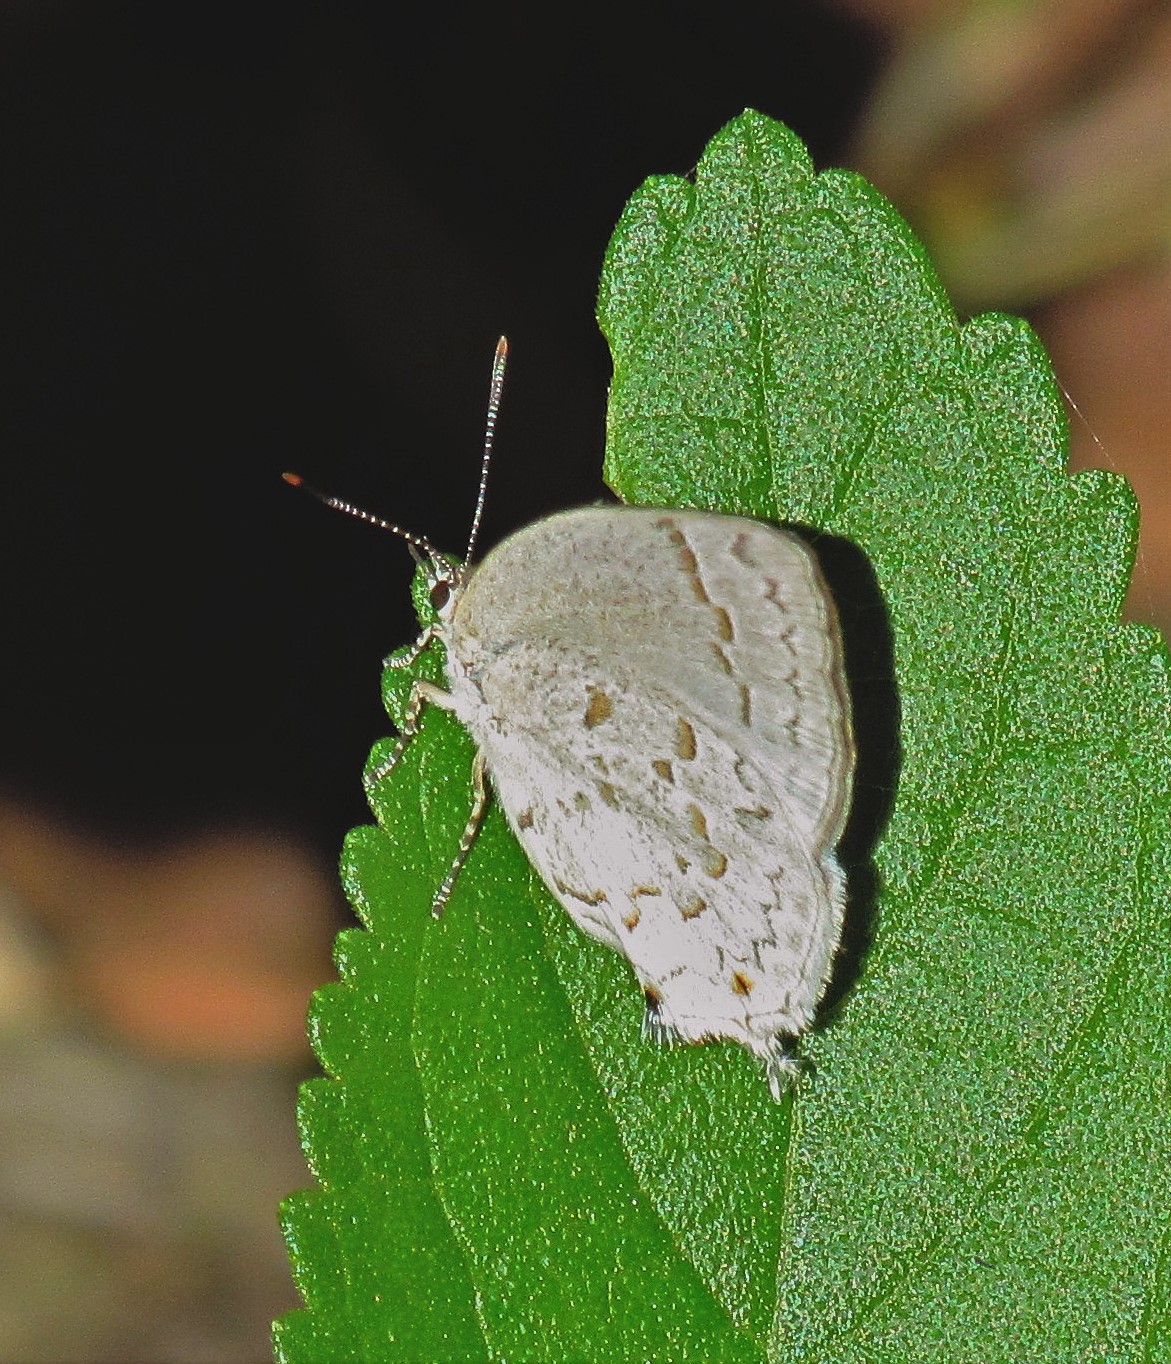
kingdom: Animalia
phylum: Arthropoda
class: Insecta
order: Lepidoptera
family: Lycaenidae
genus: Ostrinotes
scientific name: Ostrinotes
